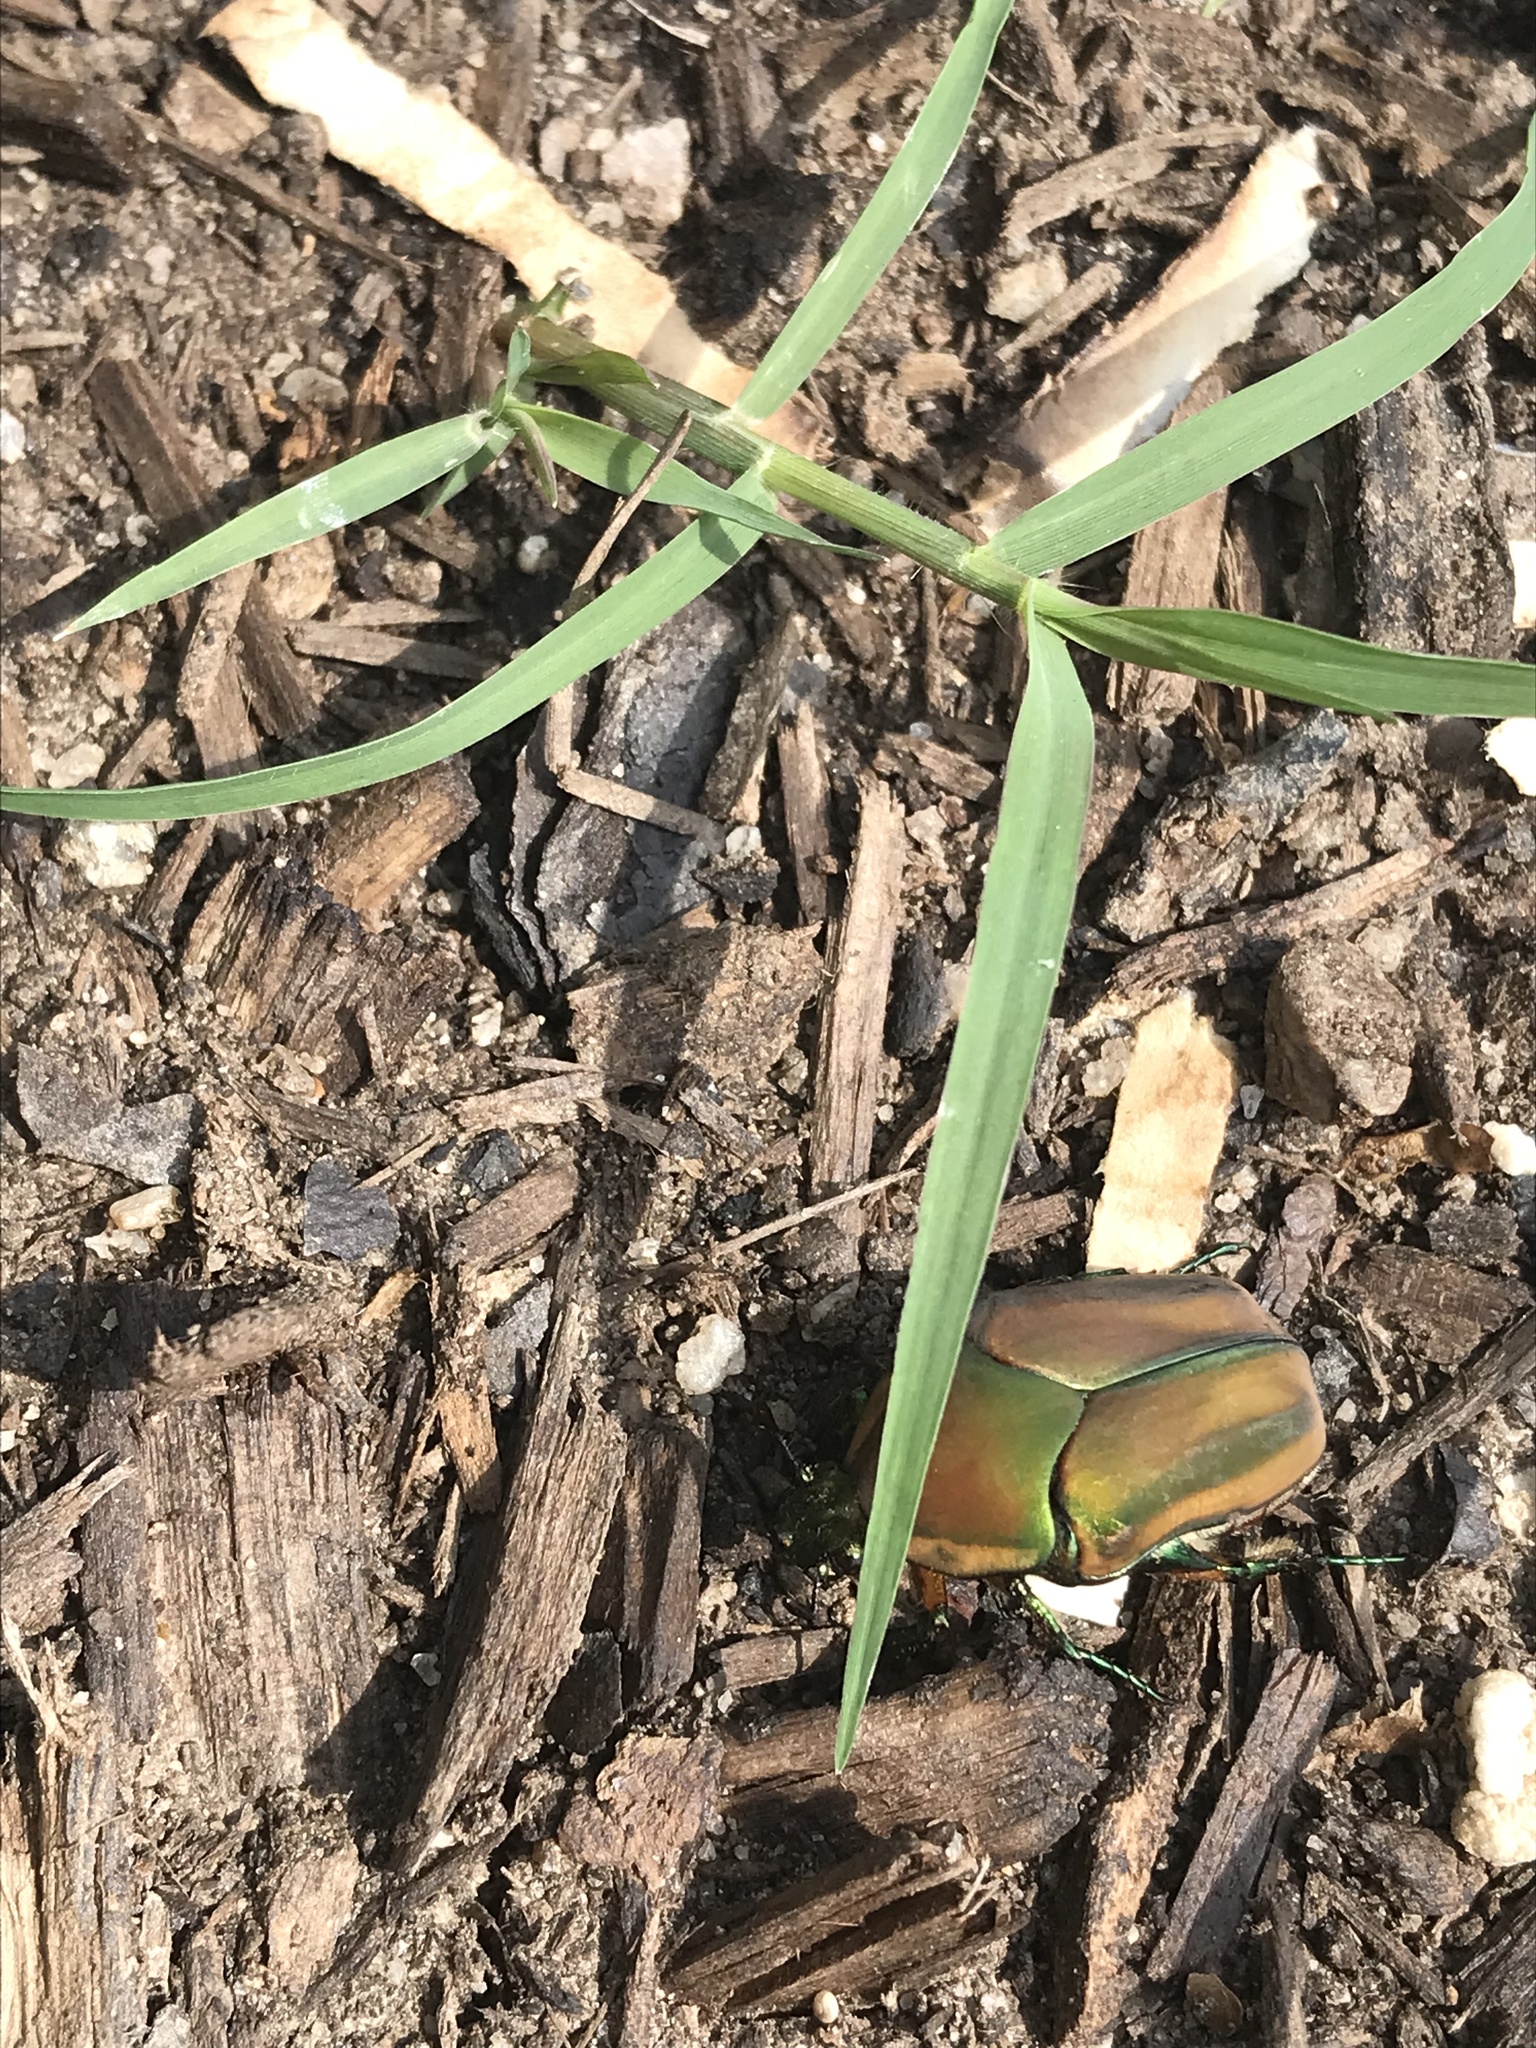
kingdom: Animalia
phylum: Arthropoda
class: Insecta
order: Coleoptera
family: Scarabaeidae
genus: Cotinis
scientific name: Cotinis nitida
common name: Common green june beetle
